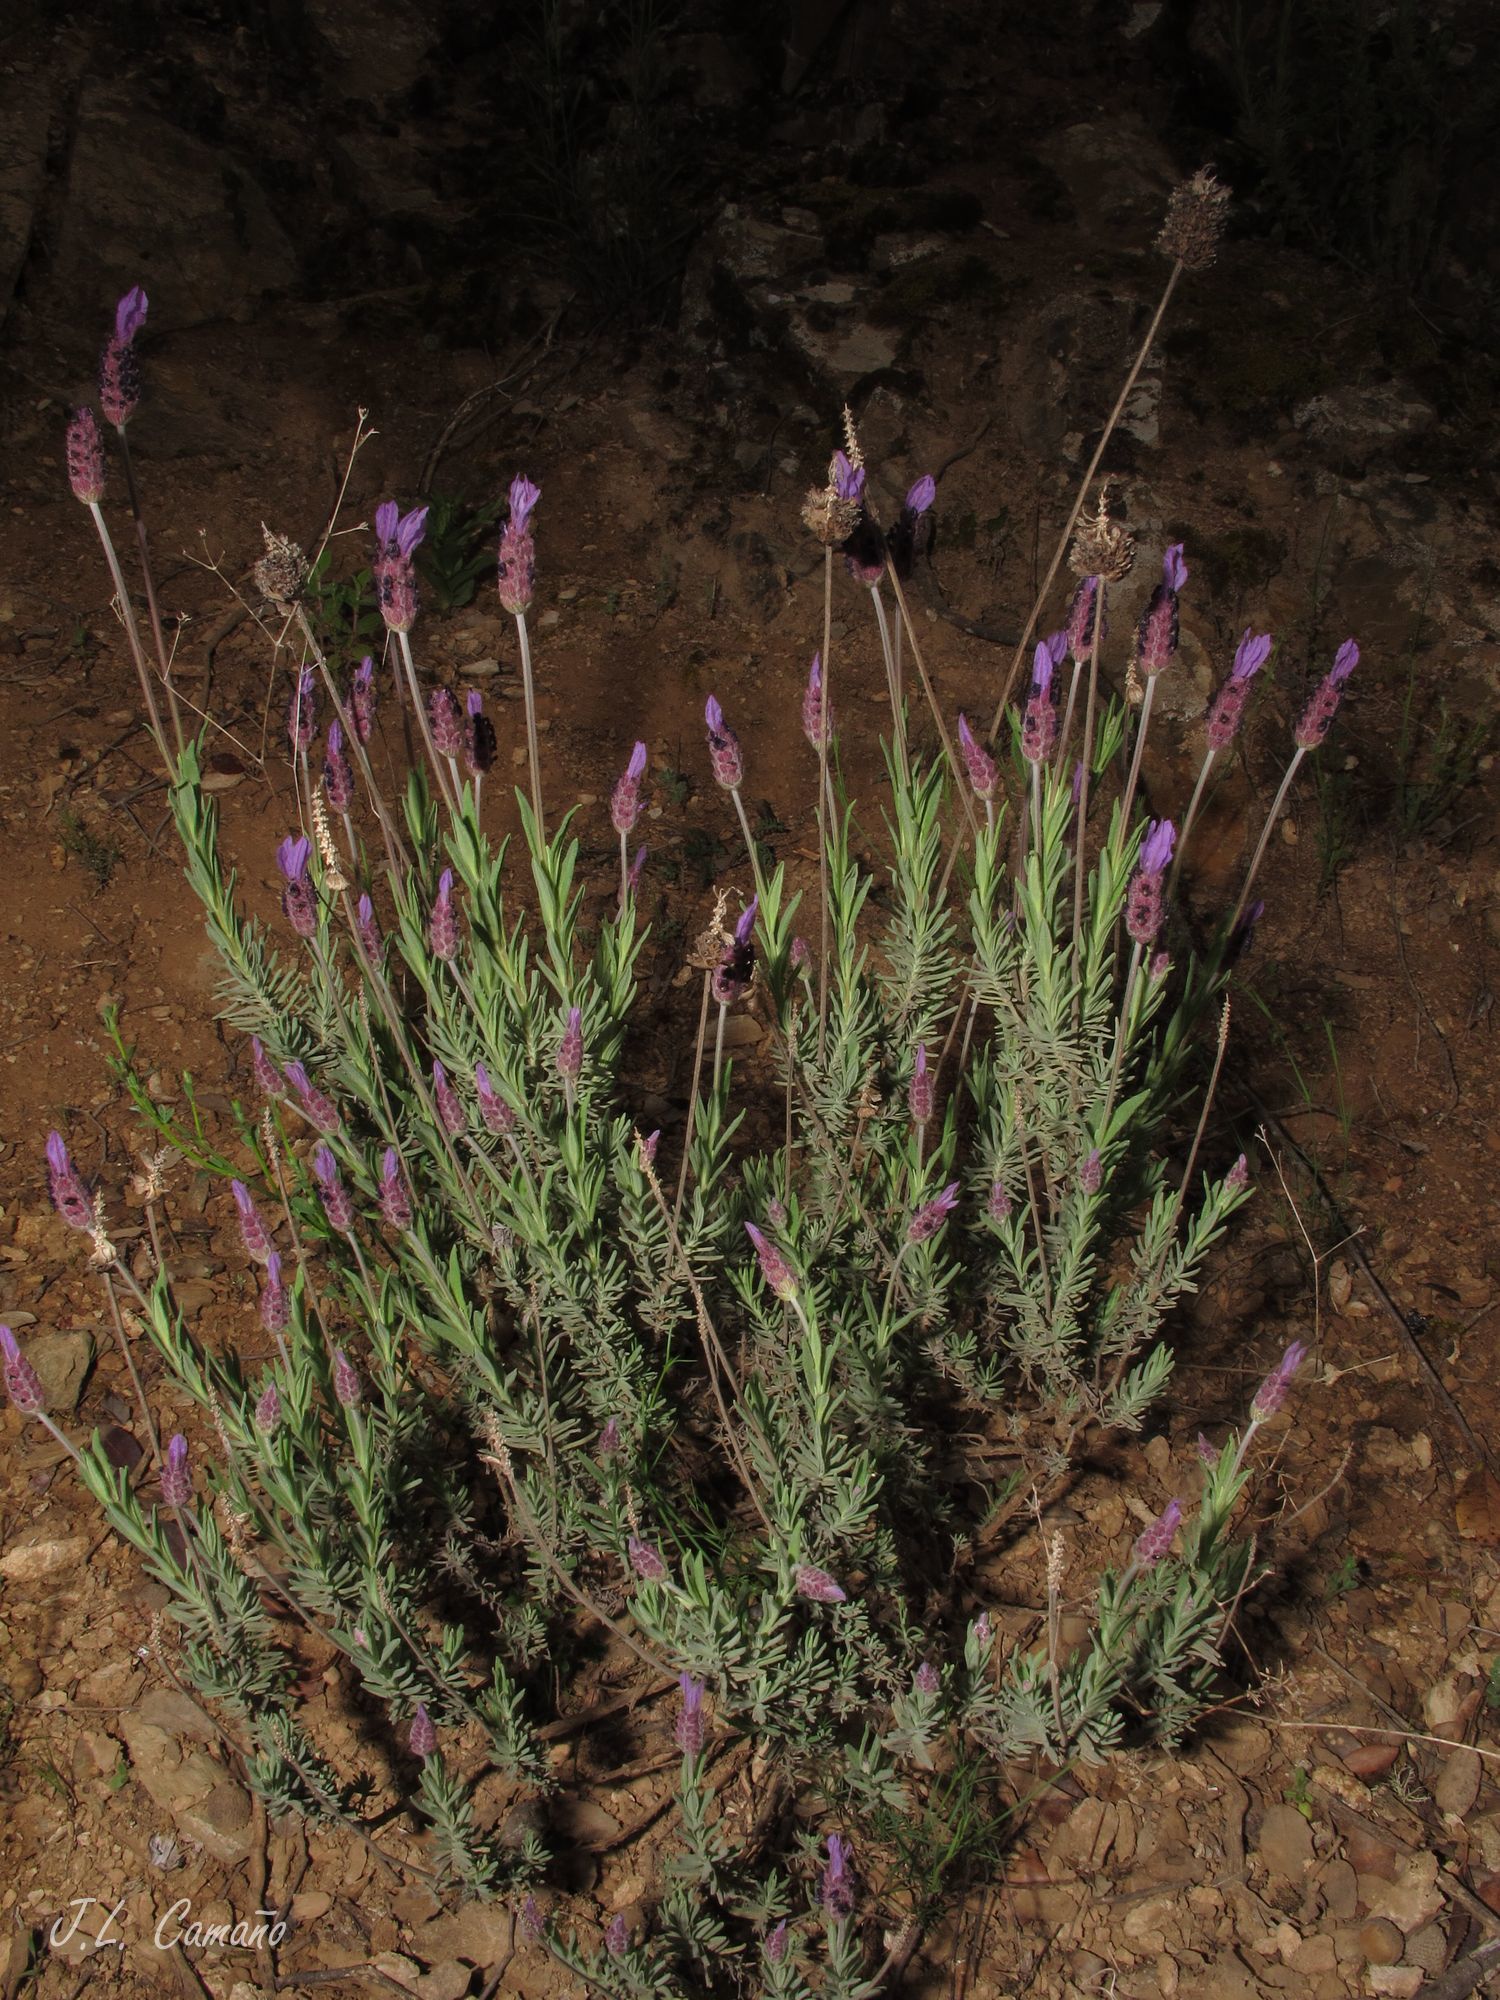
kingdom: Plantae
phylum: Tracheophyta
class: Magnoliopsida
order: Lamiales
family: Lamiaceae
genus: Lavandula
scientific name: Lavandula pedunculata
